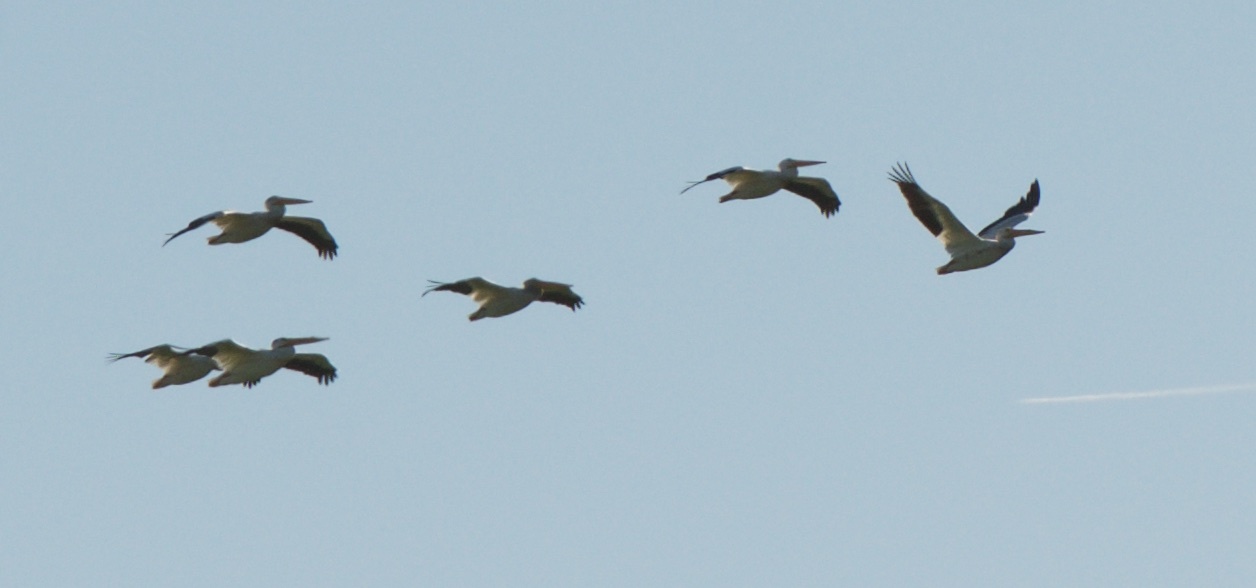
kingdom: Animalia
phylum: Chordata
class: Aves
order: Pelecaniformes
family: Pelecanidae
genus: Pelecanus
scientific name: Pelecanus erythrorhynchos
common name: American white pelican
